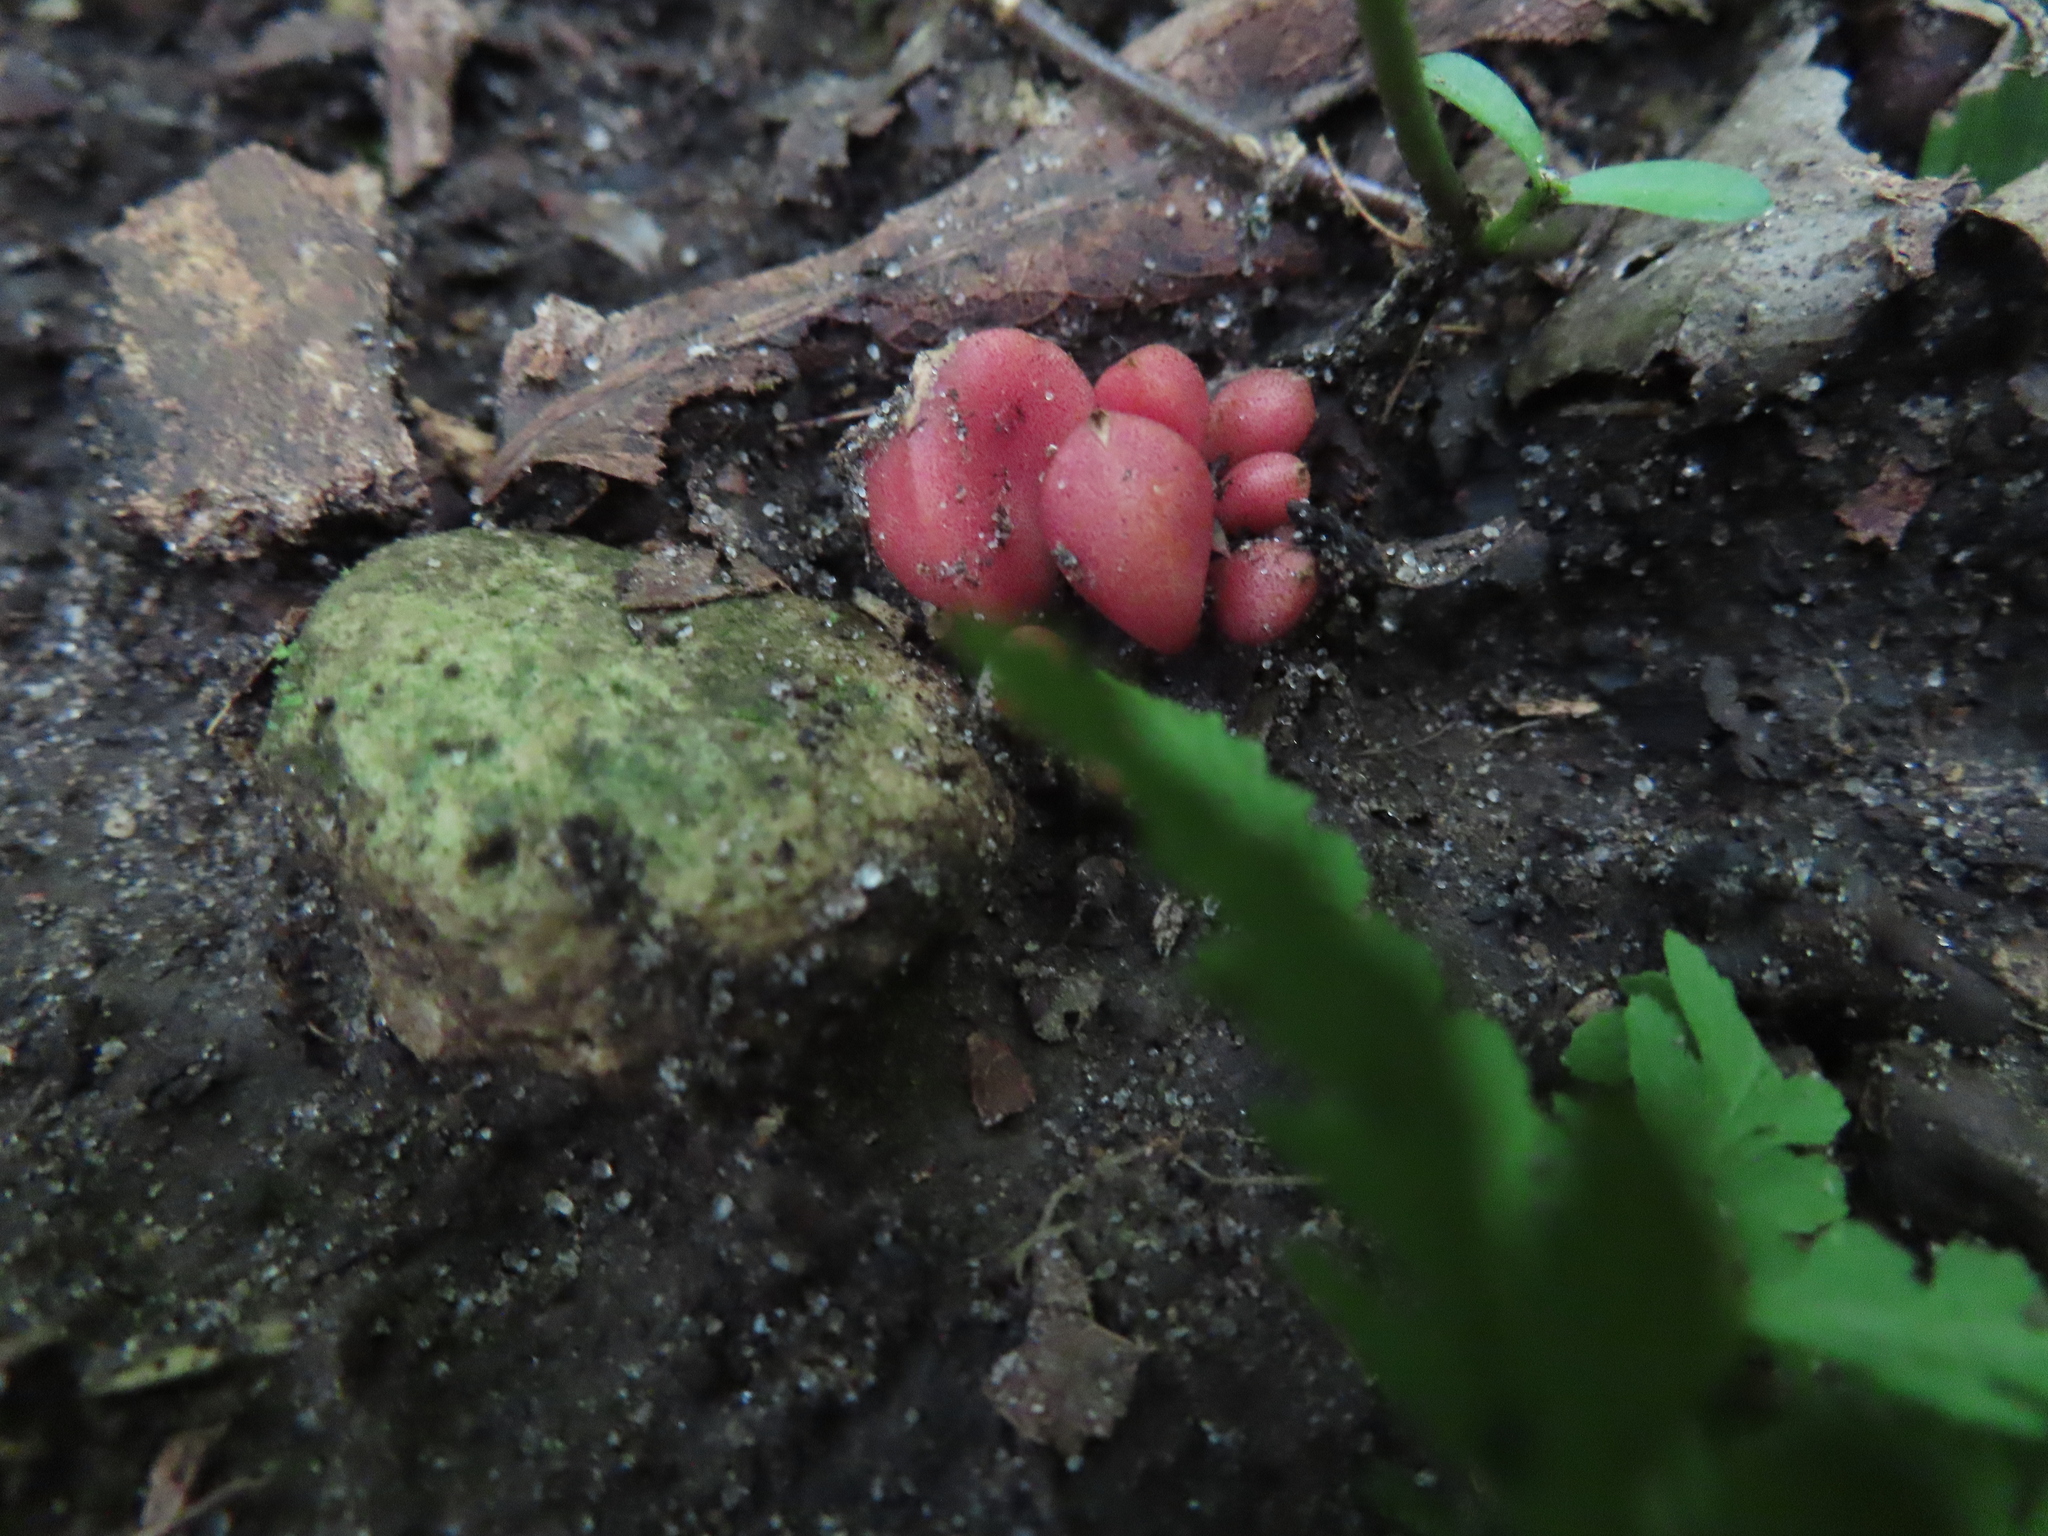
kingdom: Plantae
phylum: Tracheophyta
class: Magnoliopsida
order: Ranunculales
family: Papaveraceae
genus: Dicentra
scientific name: Dicentra cucullaria
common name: Dutchman's breeches
